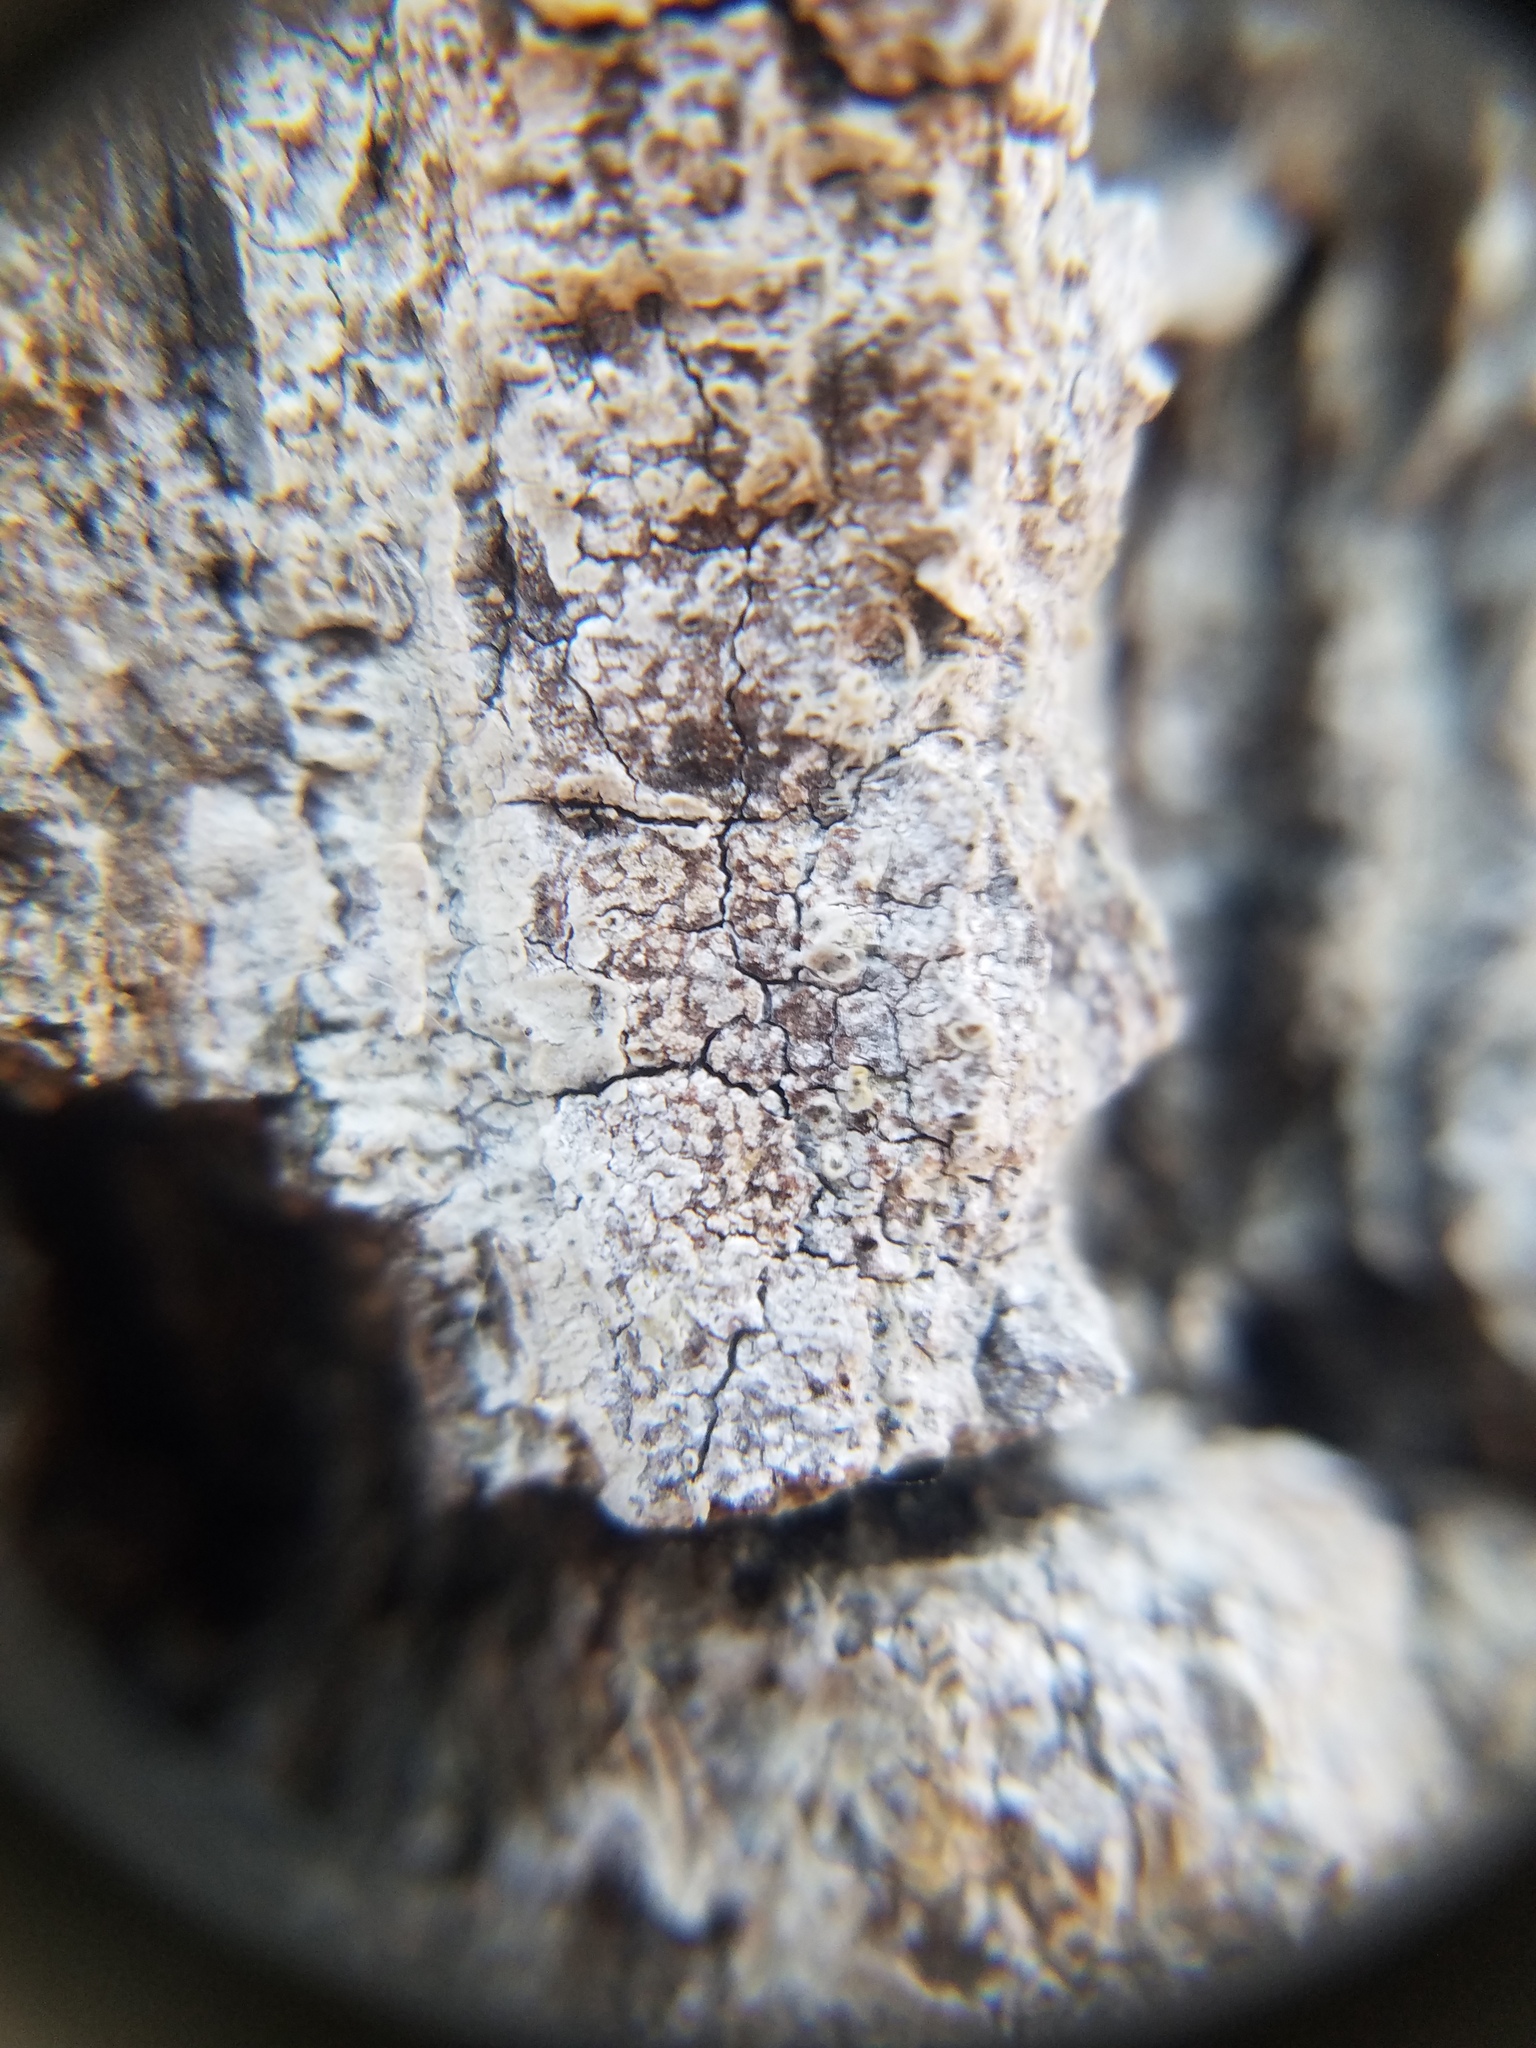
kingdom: Fungi
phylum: Ascomycota
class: Arthoniomycetes
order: Arthoniales
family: Arthoniaceae
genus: Arthonia
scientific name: Arthonia rubella
